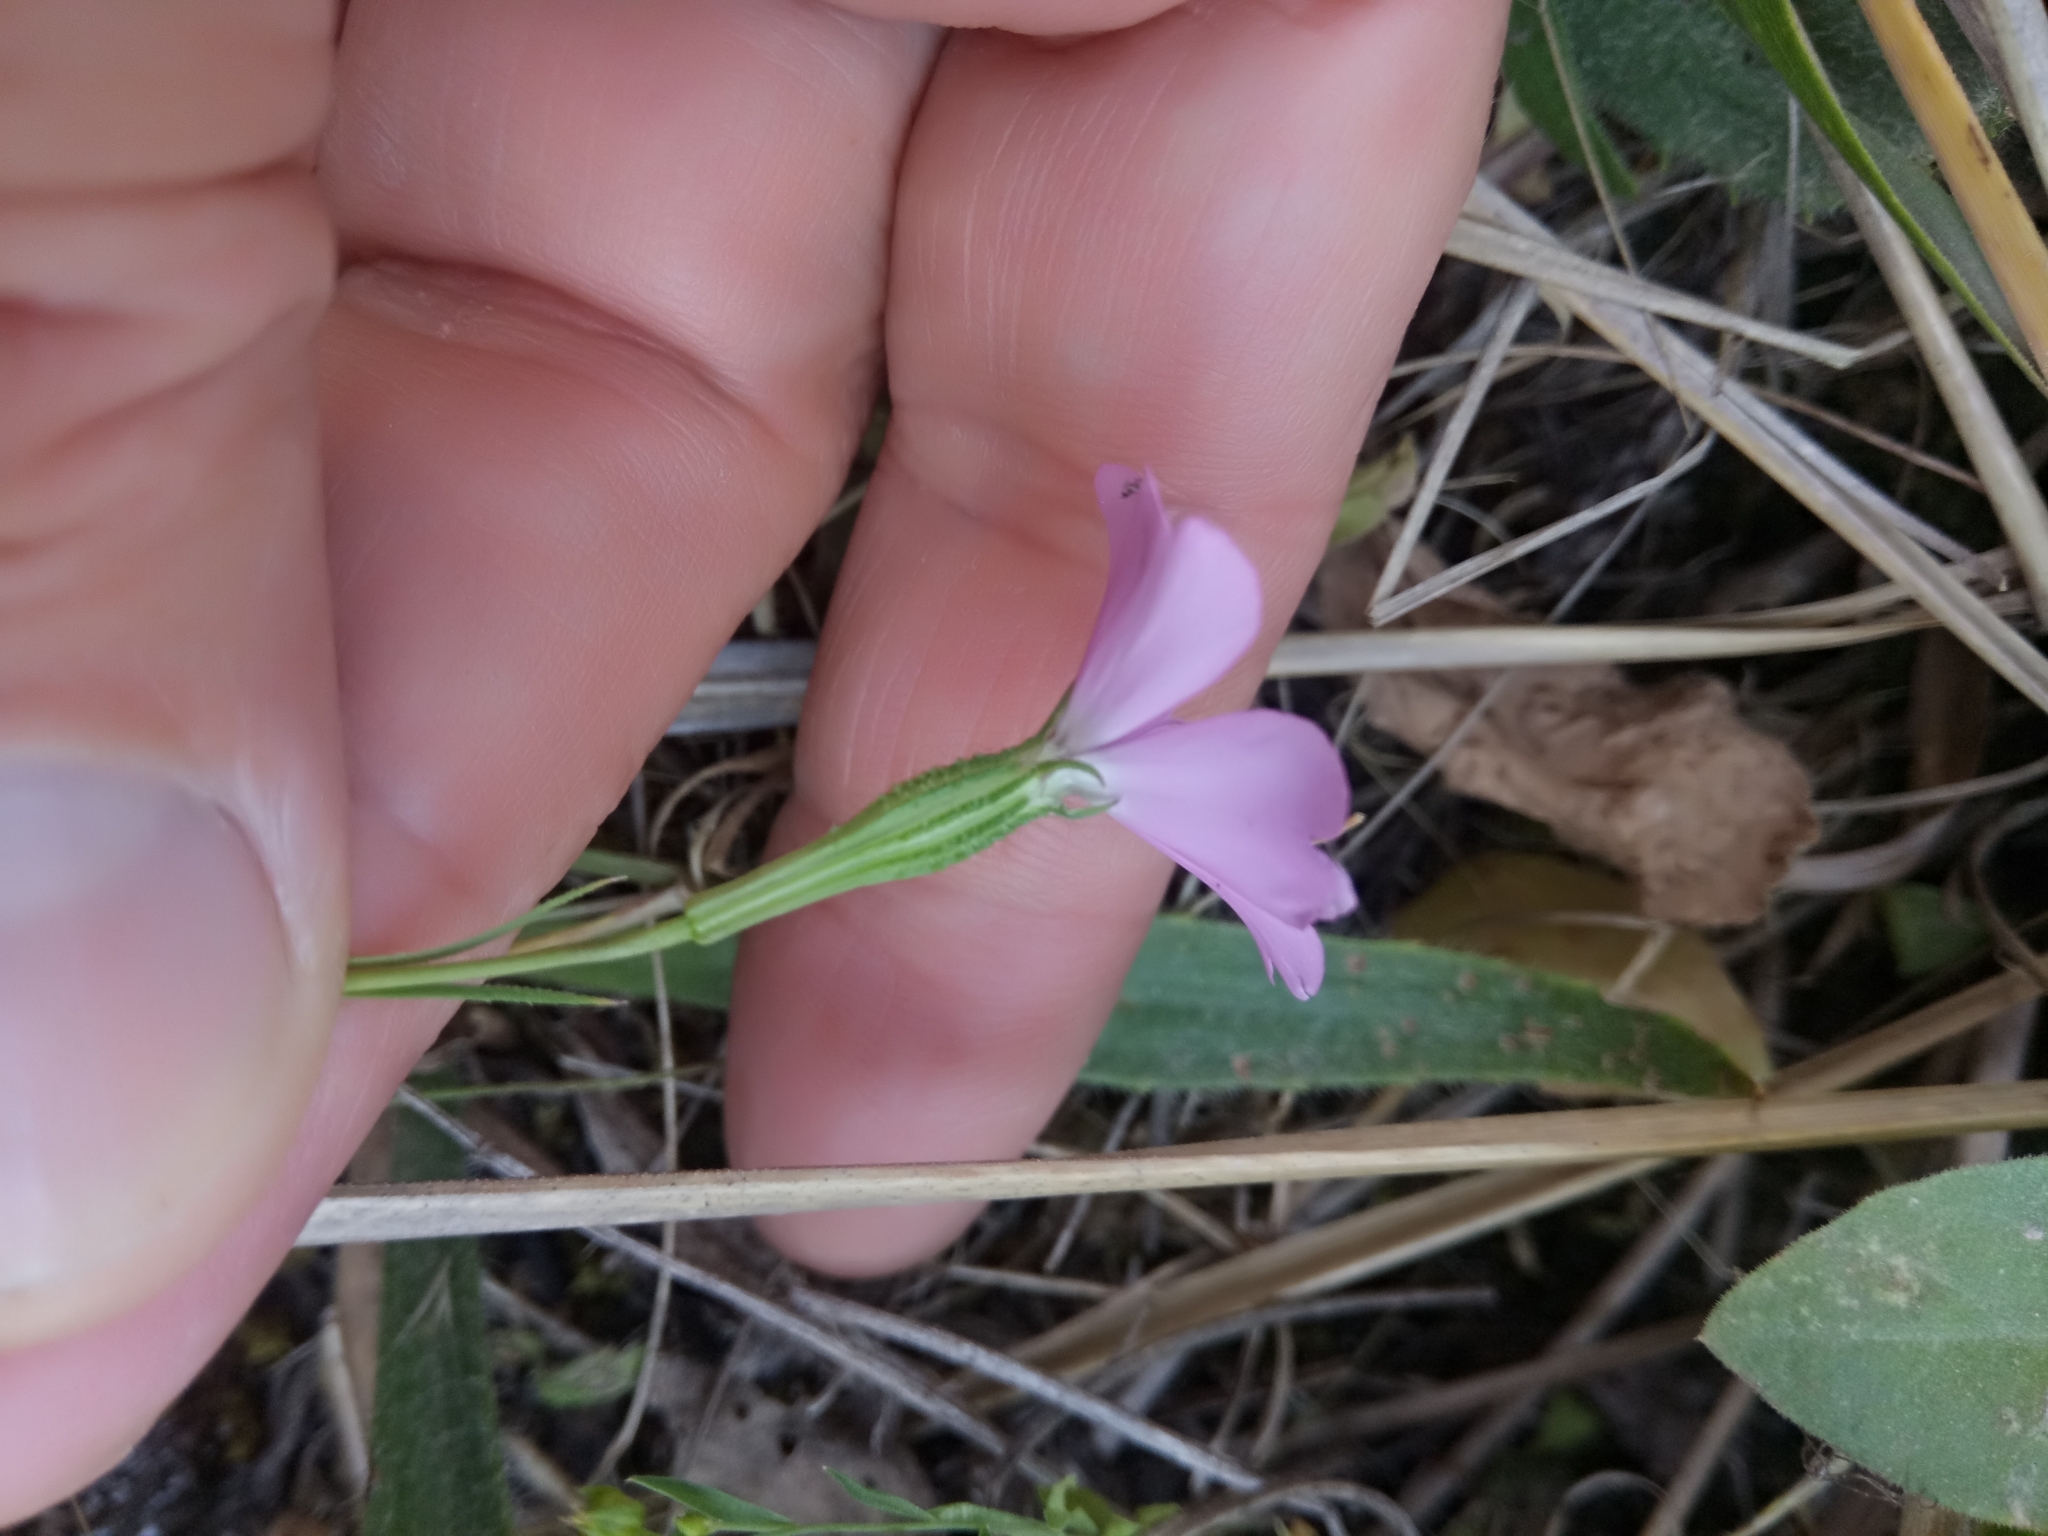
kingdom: Plantae
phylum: Tracheophyta
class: Magnoliopsida
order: Caryophyllales
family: Caryophyllaceae
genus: Eudianthe
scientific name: Eudianthe coeli-rosa
